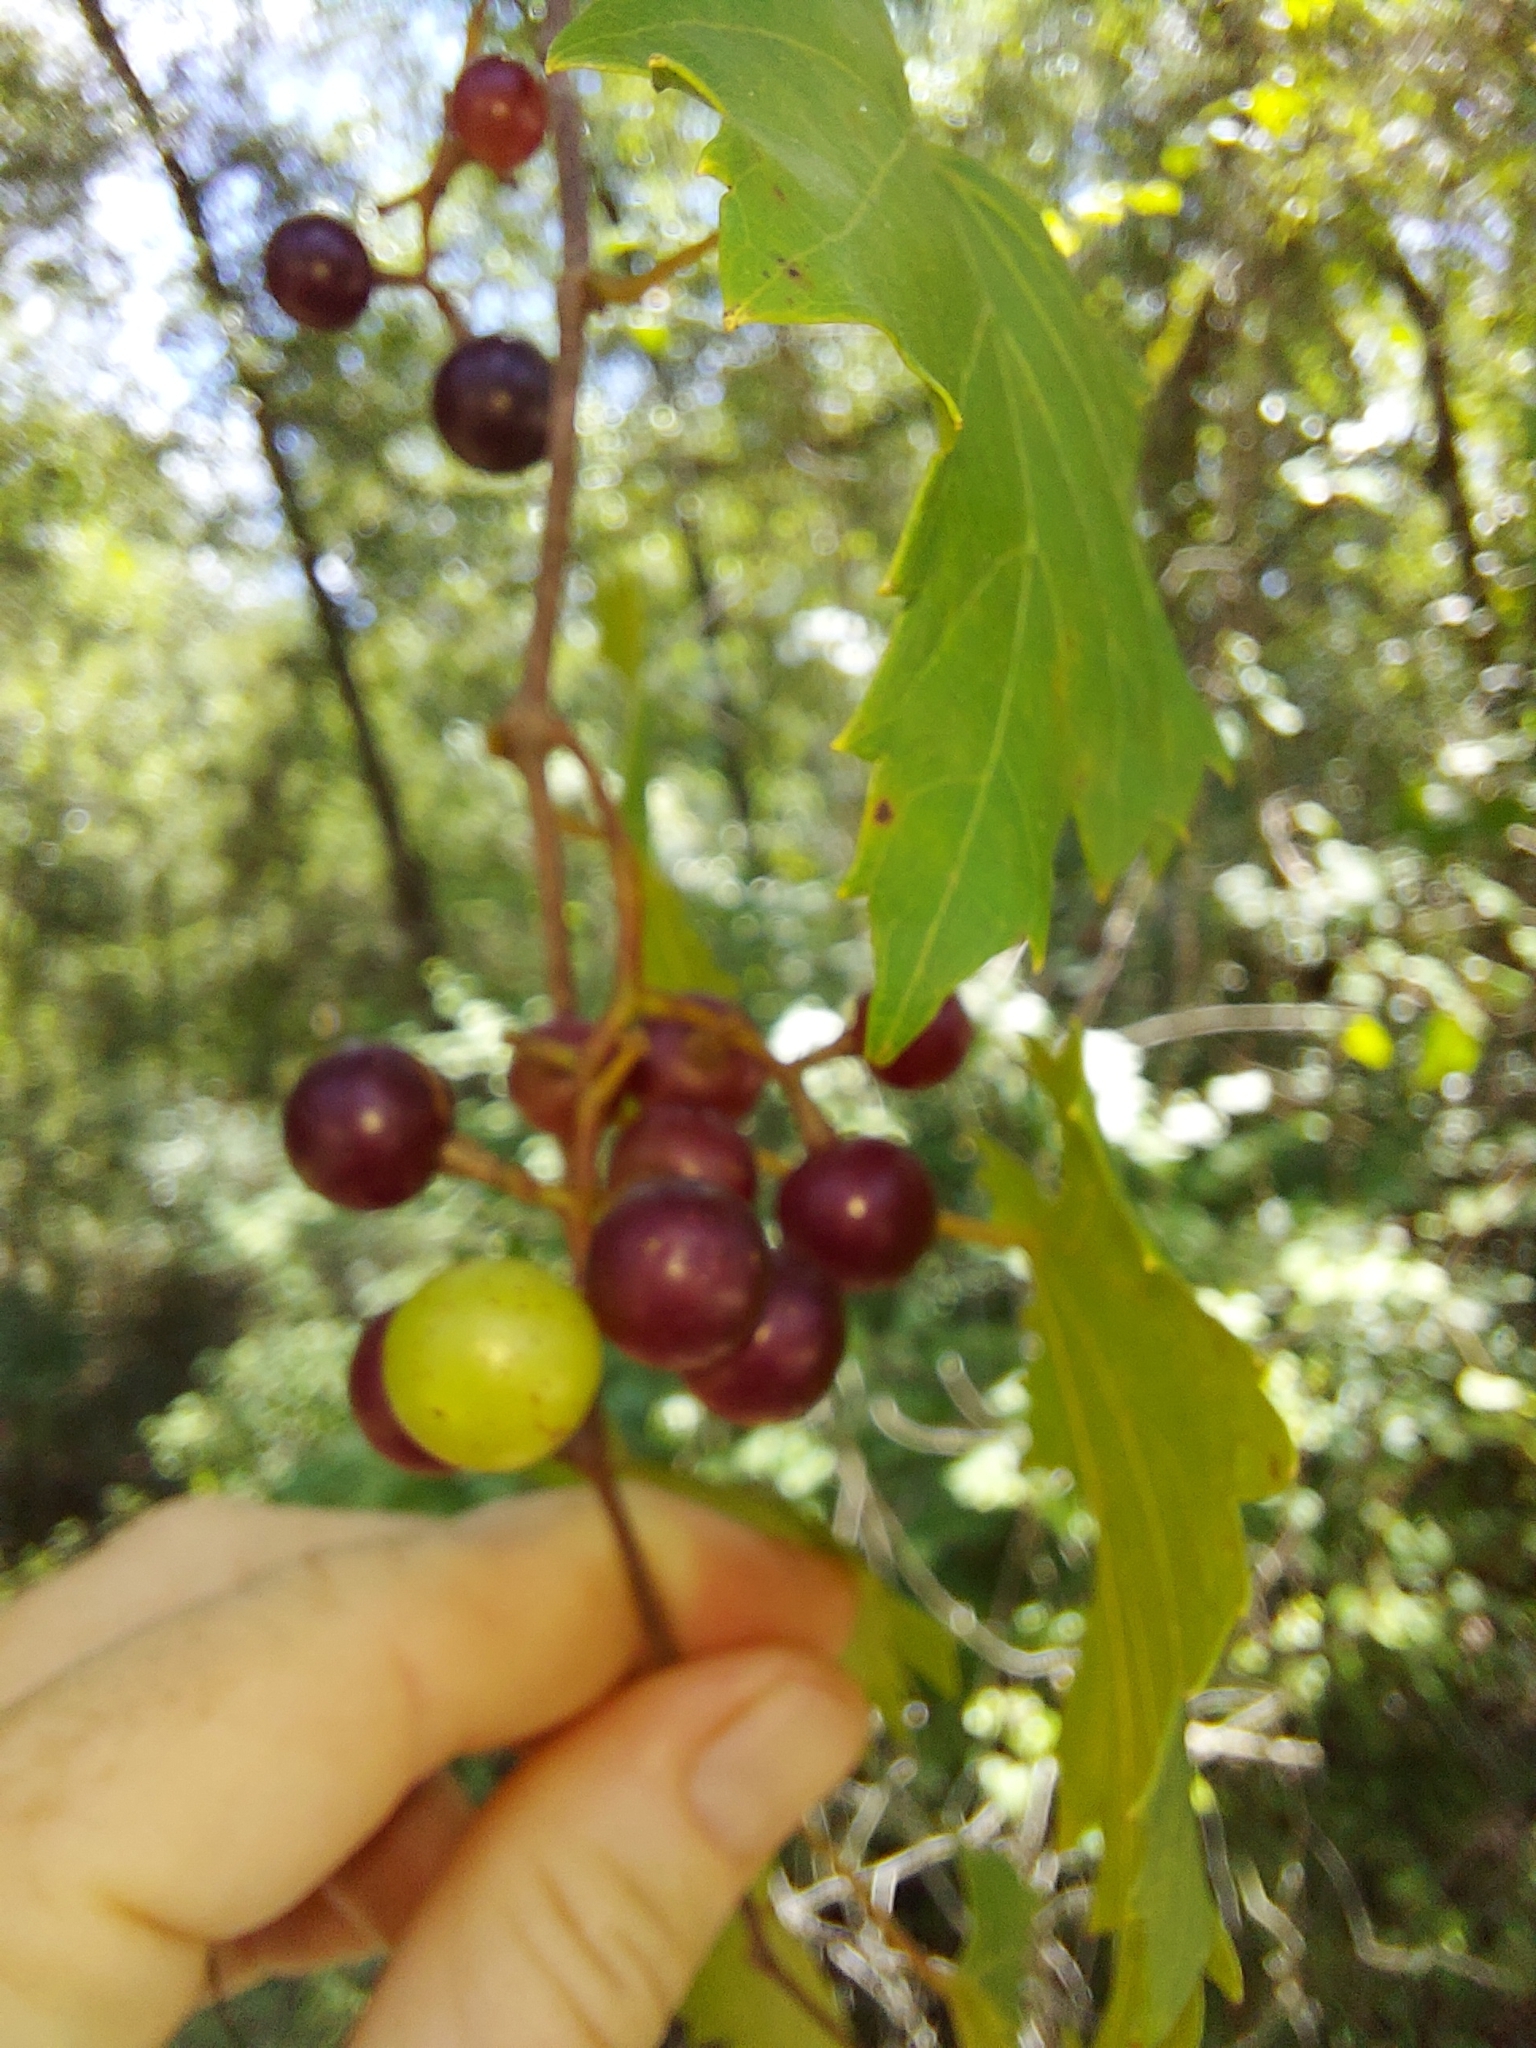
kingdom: Plantae
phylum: Tracheophyta
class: Magnoliopsida
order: Vitales
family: Vitaceae
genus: Vitis
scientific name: Vitis rotundifolia
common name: Muscadine grape
